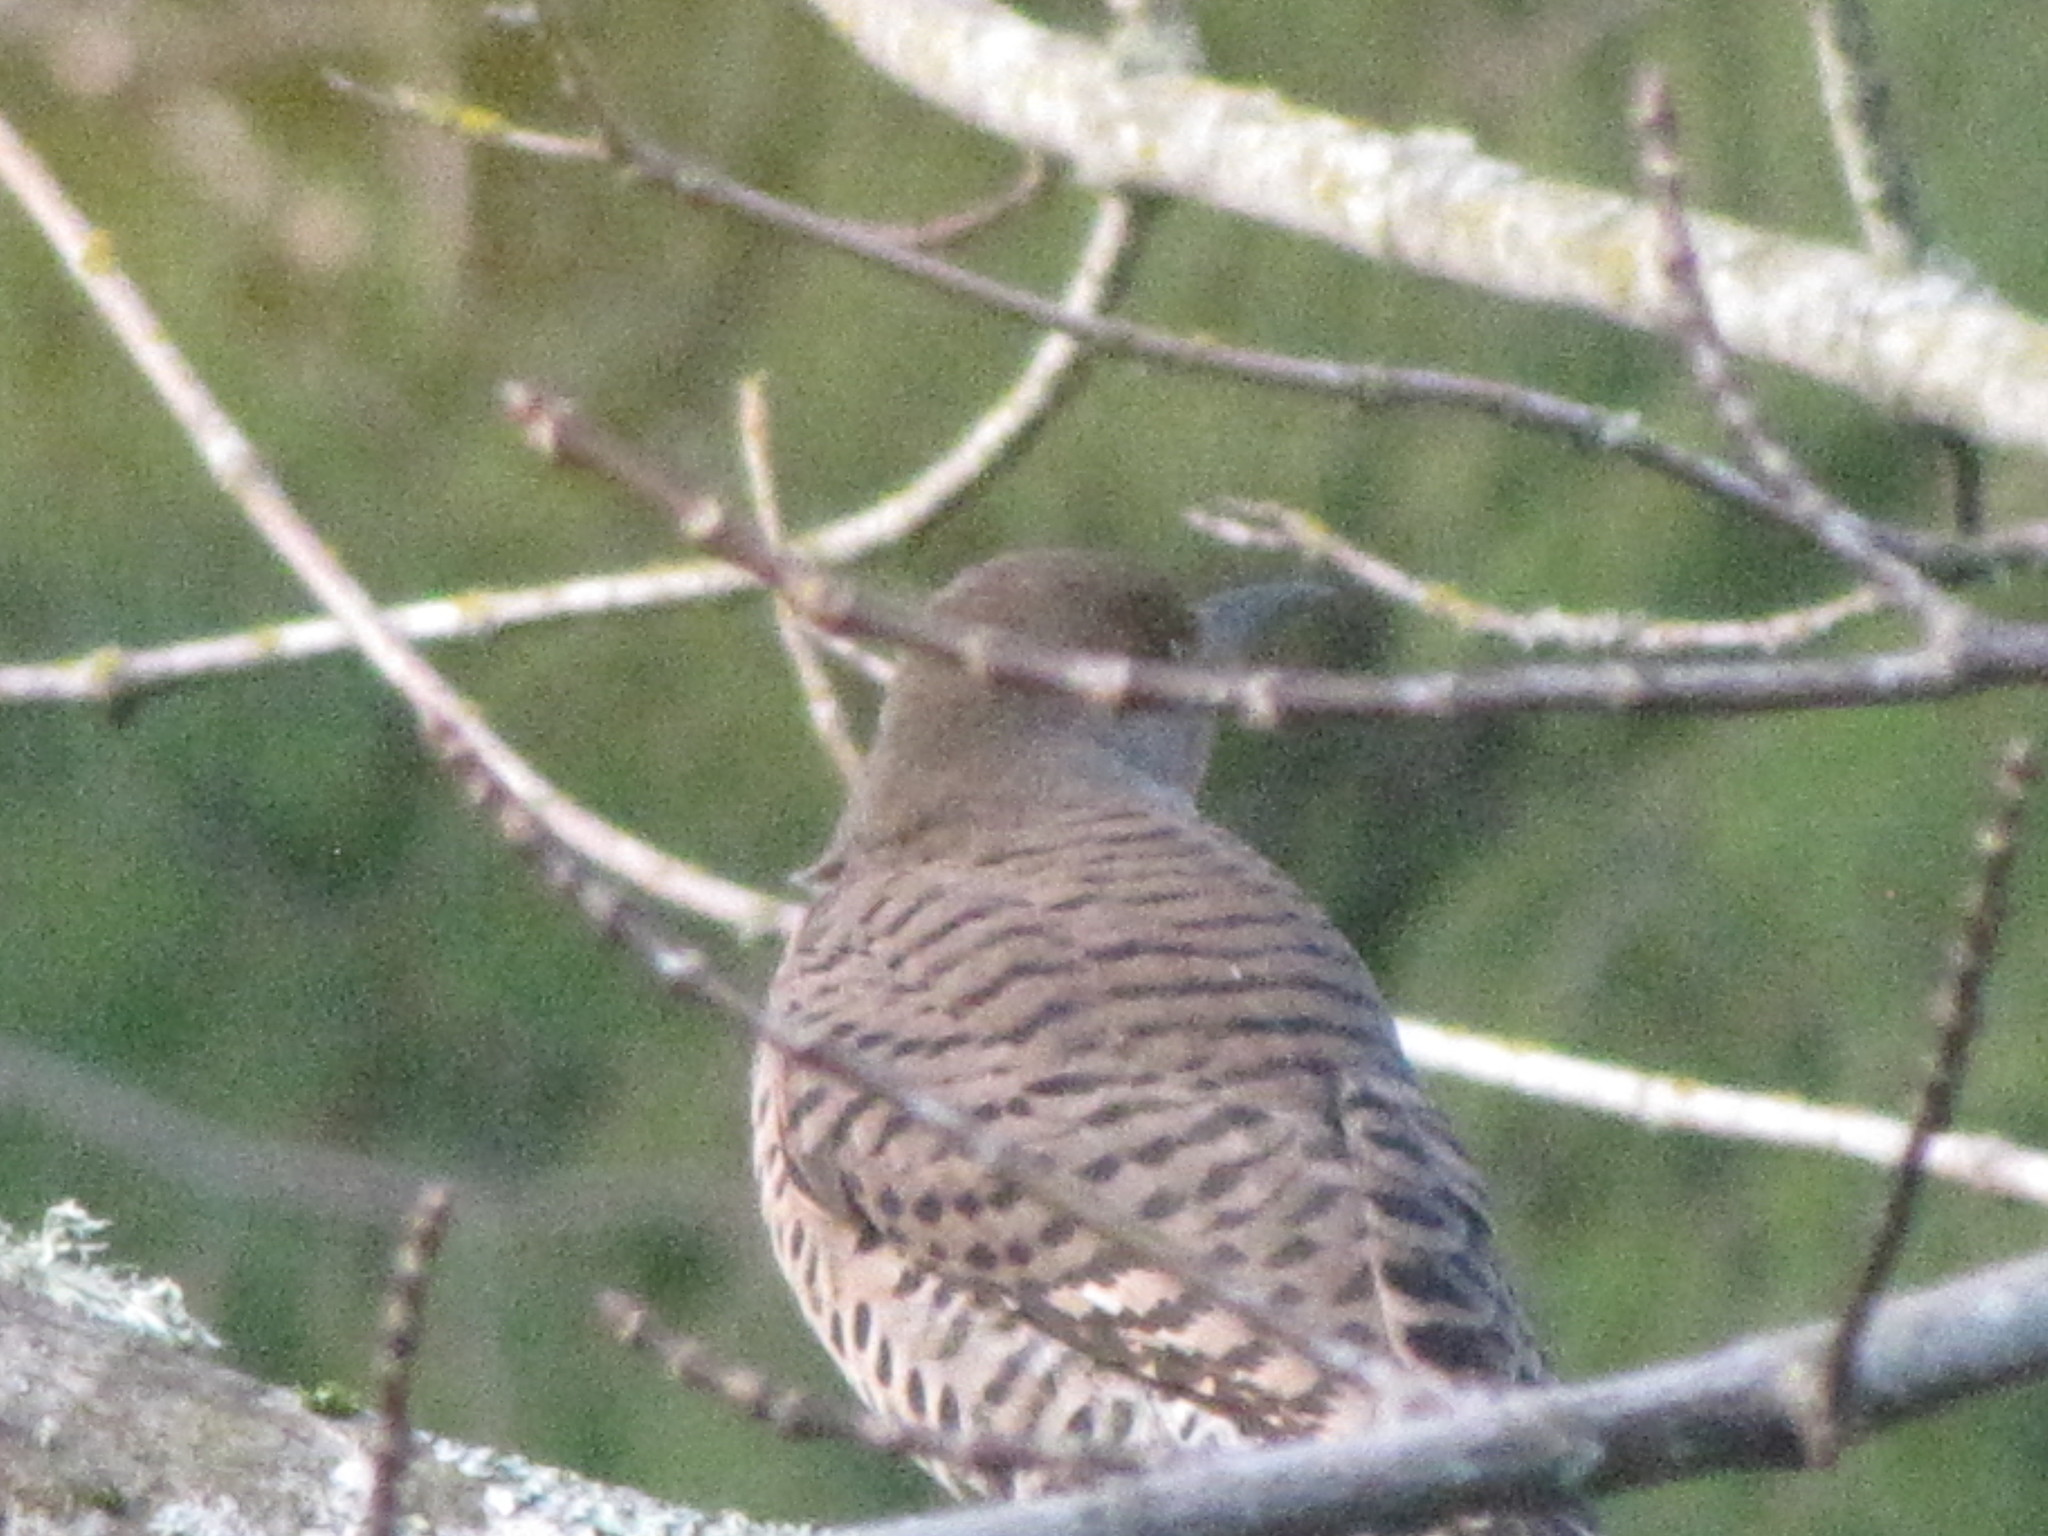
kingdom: Animalia
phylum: Chordata
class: Aves
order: Piciformes
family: Picidae
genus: Colaptes
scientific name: Colaptes auratus
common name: Northern flicker
